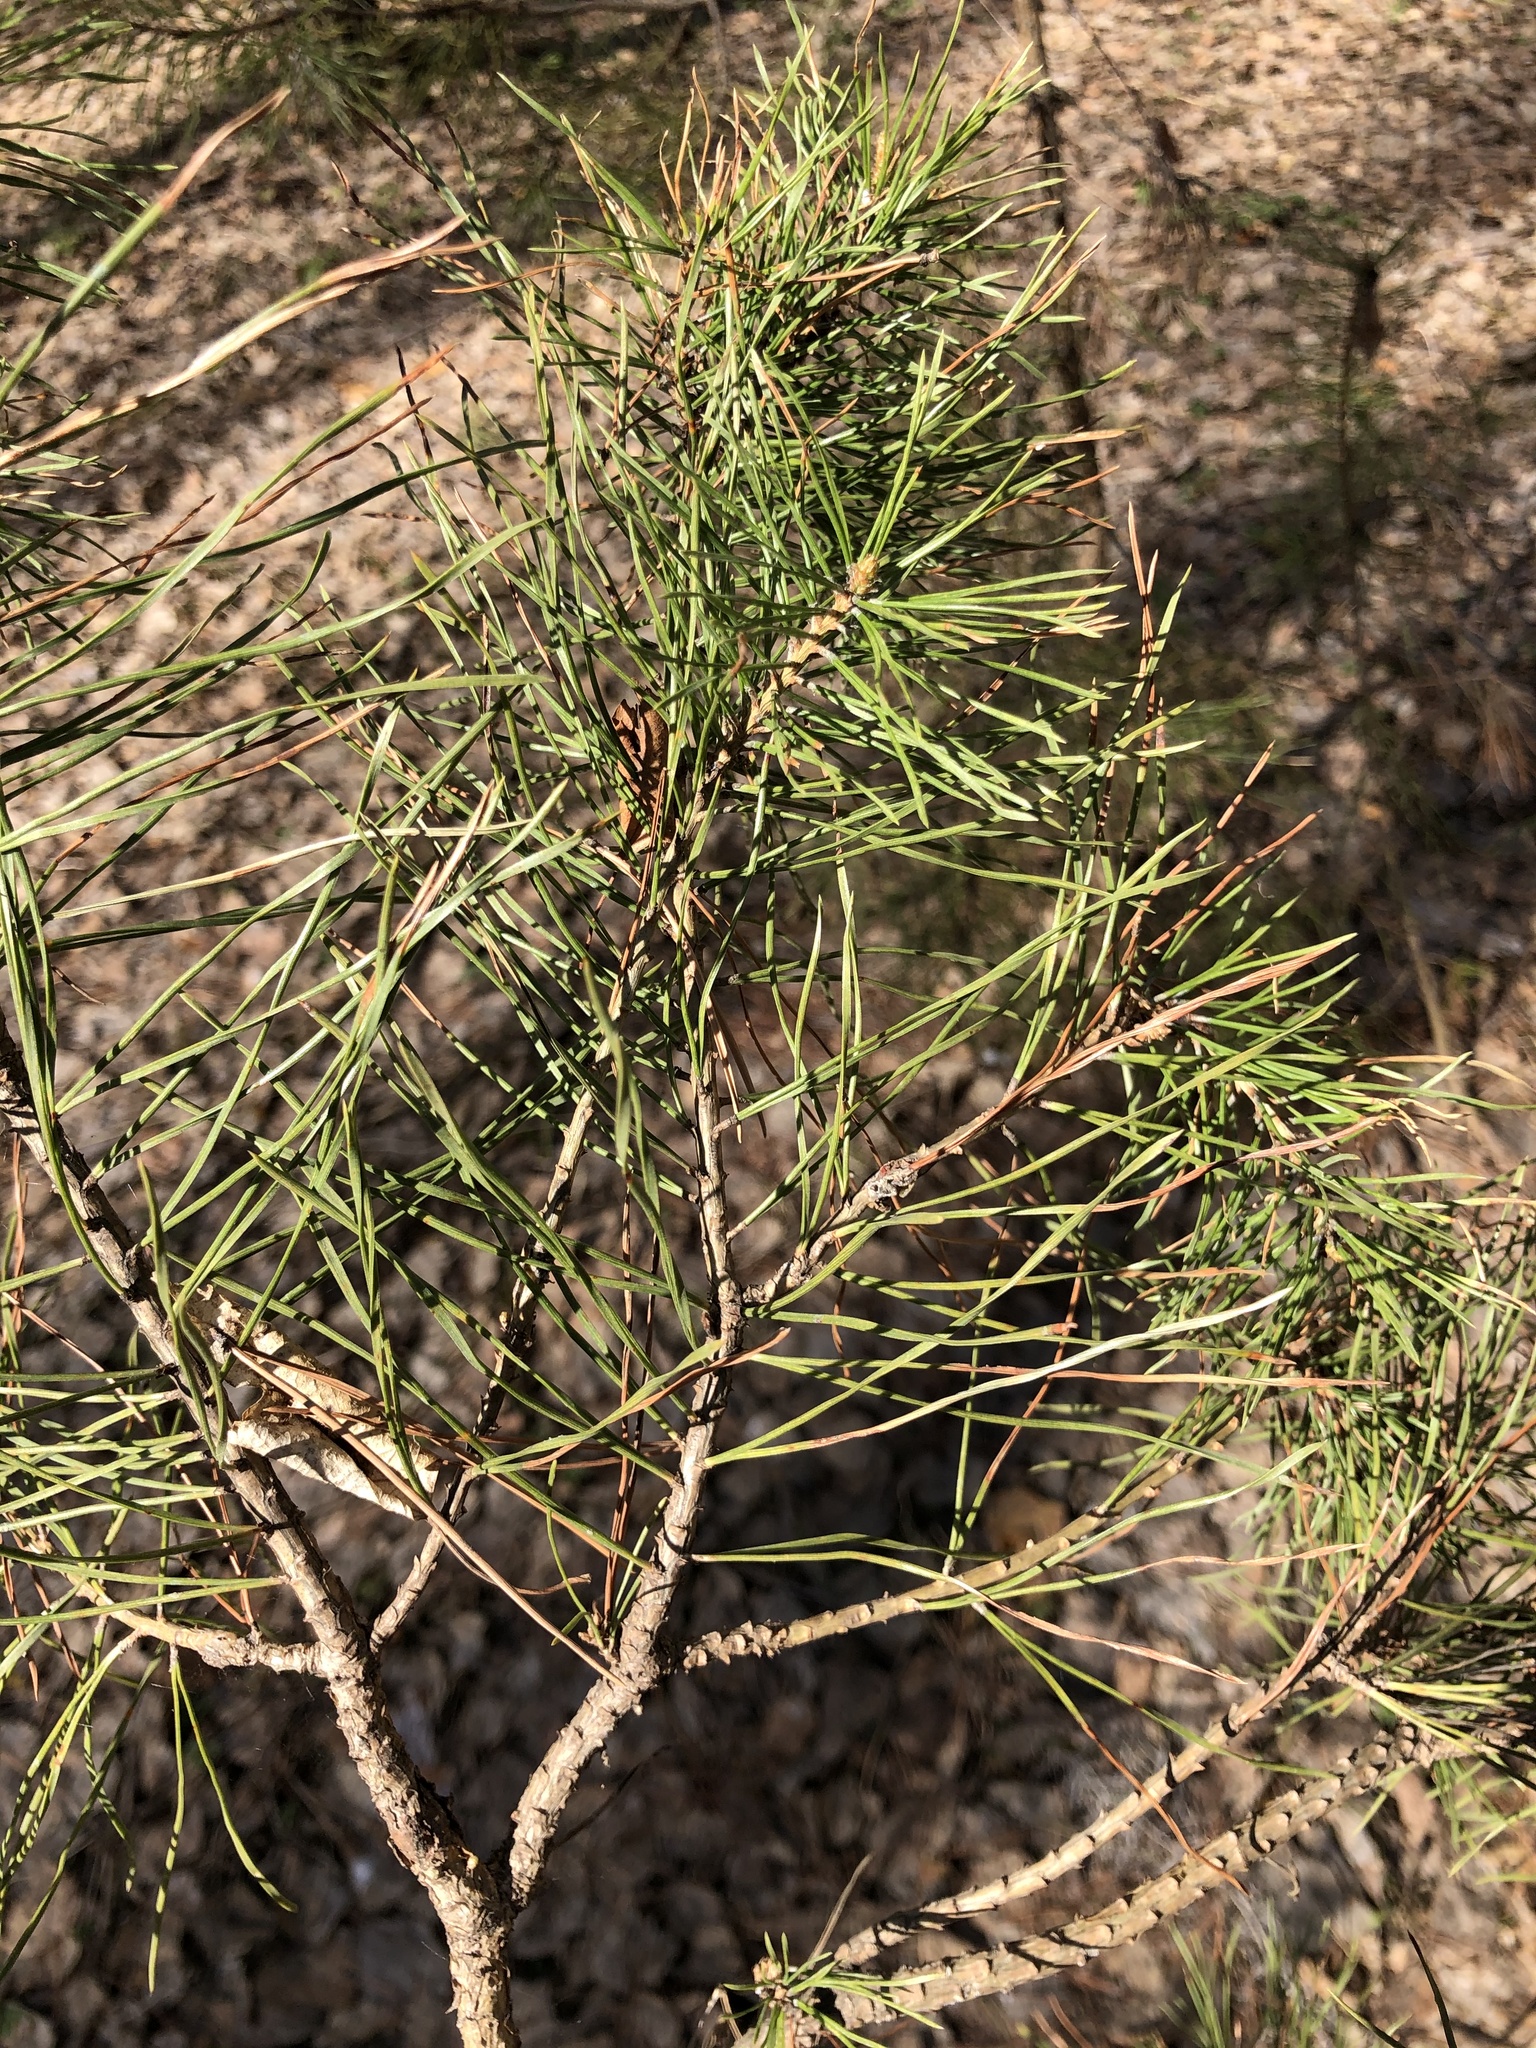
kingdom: Plantae
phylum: Tracheophyta
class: Pinopsida
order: Pinales
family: Pinaceae
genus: Pinus
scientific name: Pinus sylvestris
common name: Scots pine
